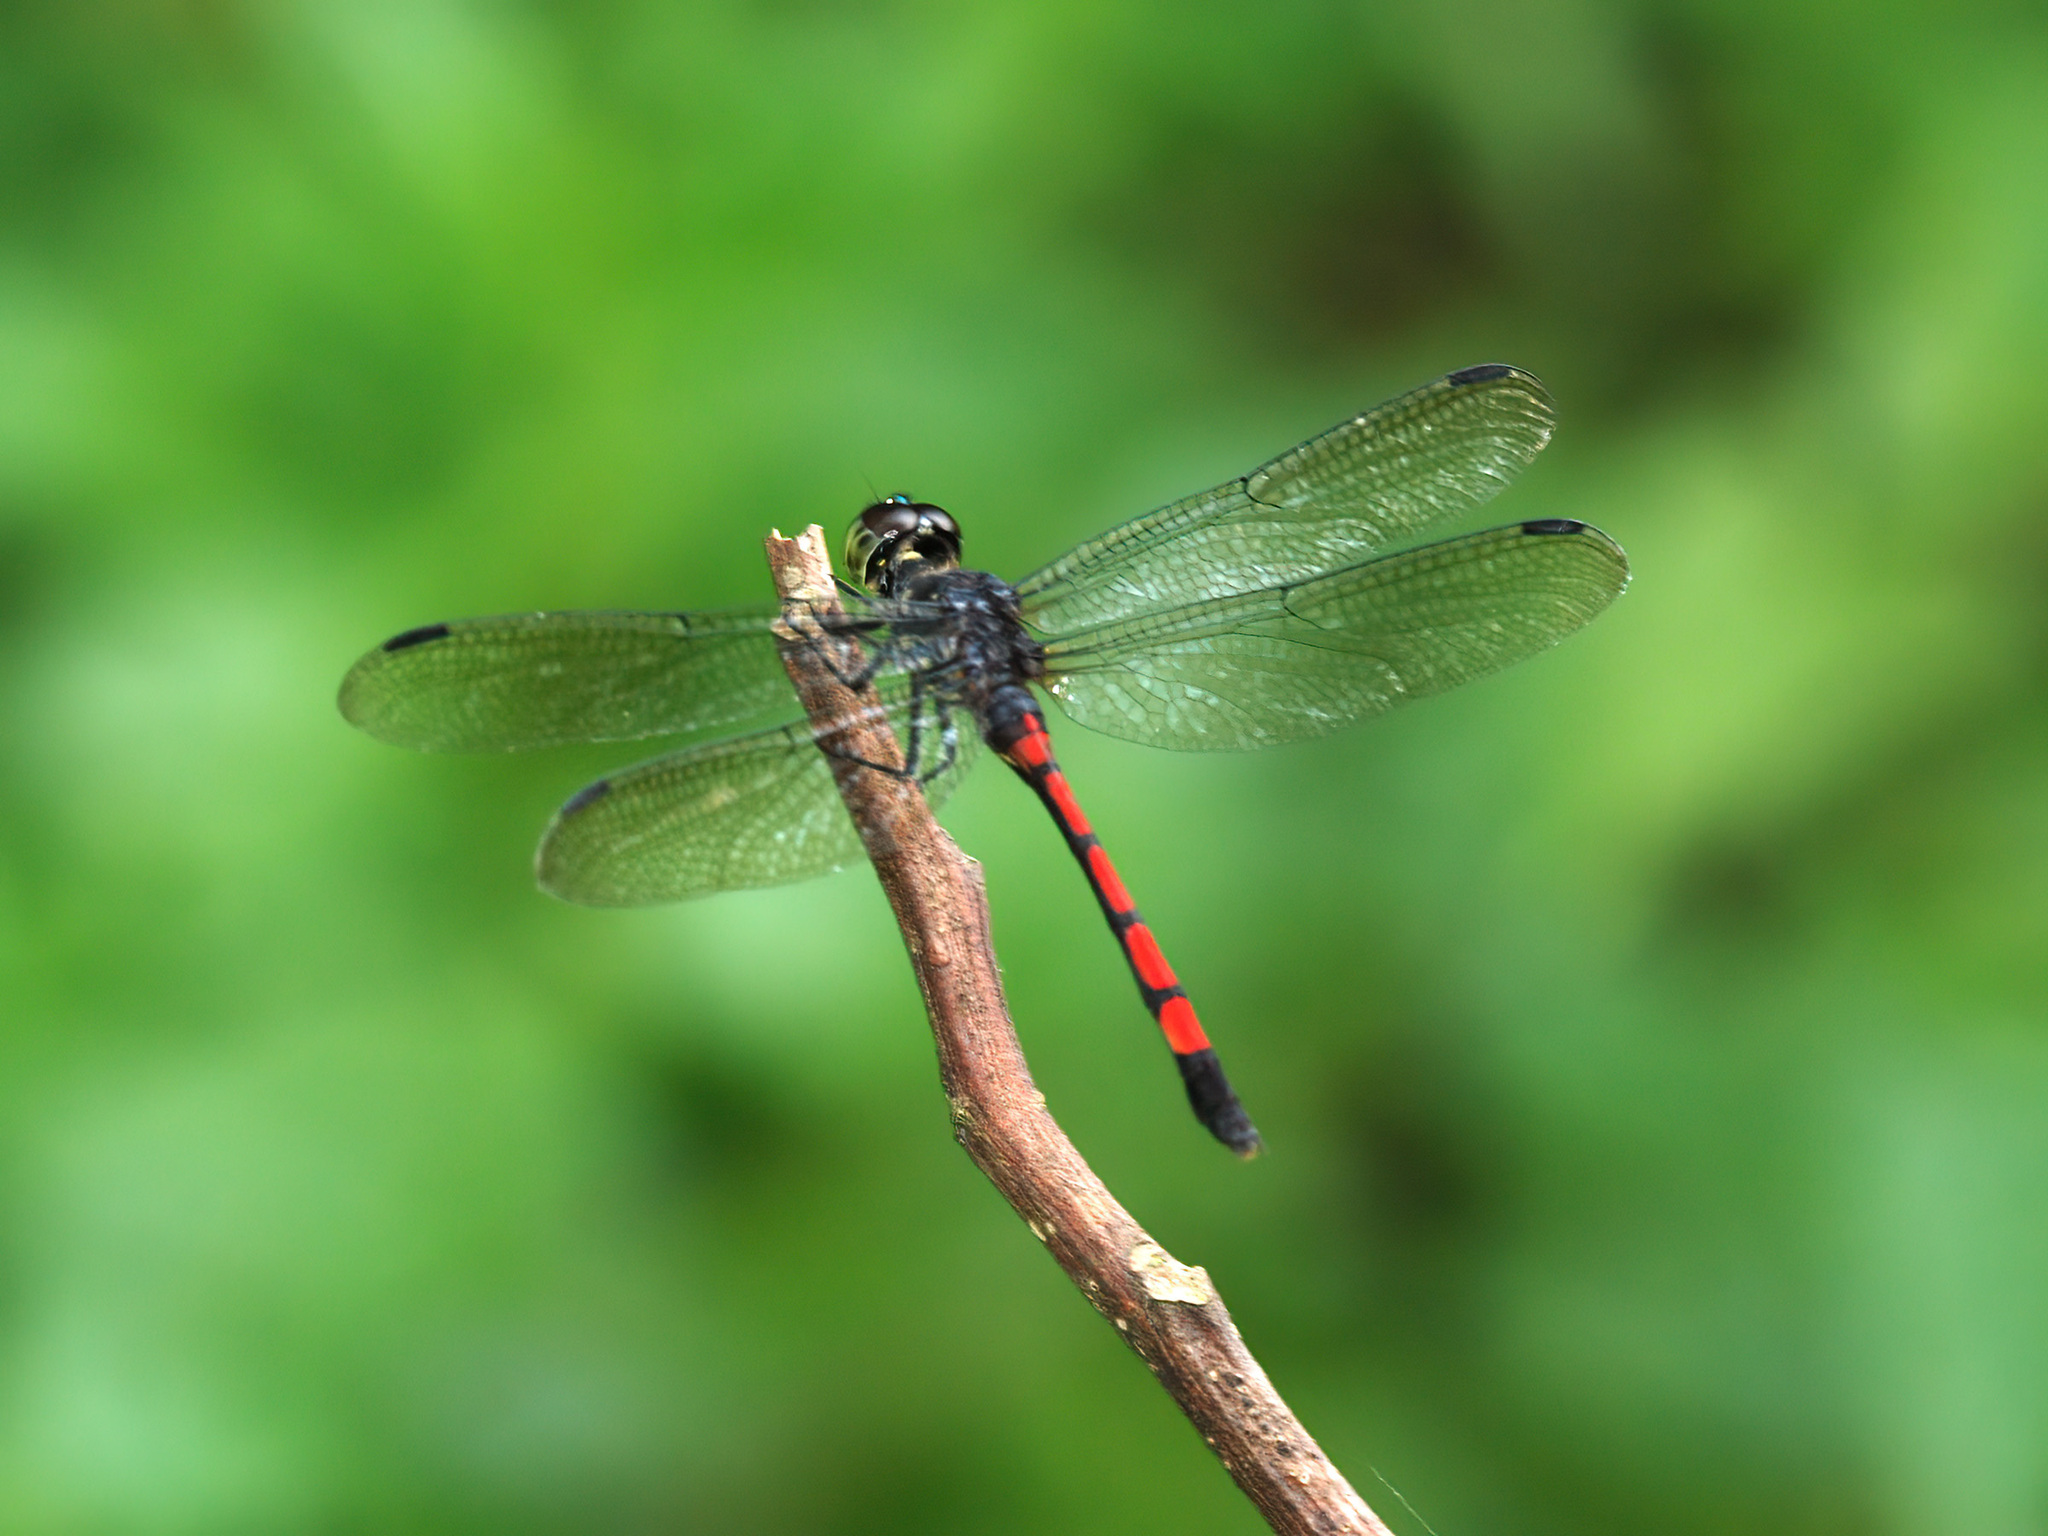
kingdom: Animalia
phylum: Arthropoda
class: Insecta
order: Odonata
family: Libellulidae
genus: Agrionoptera
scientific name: Agrionoptera insignis
